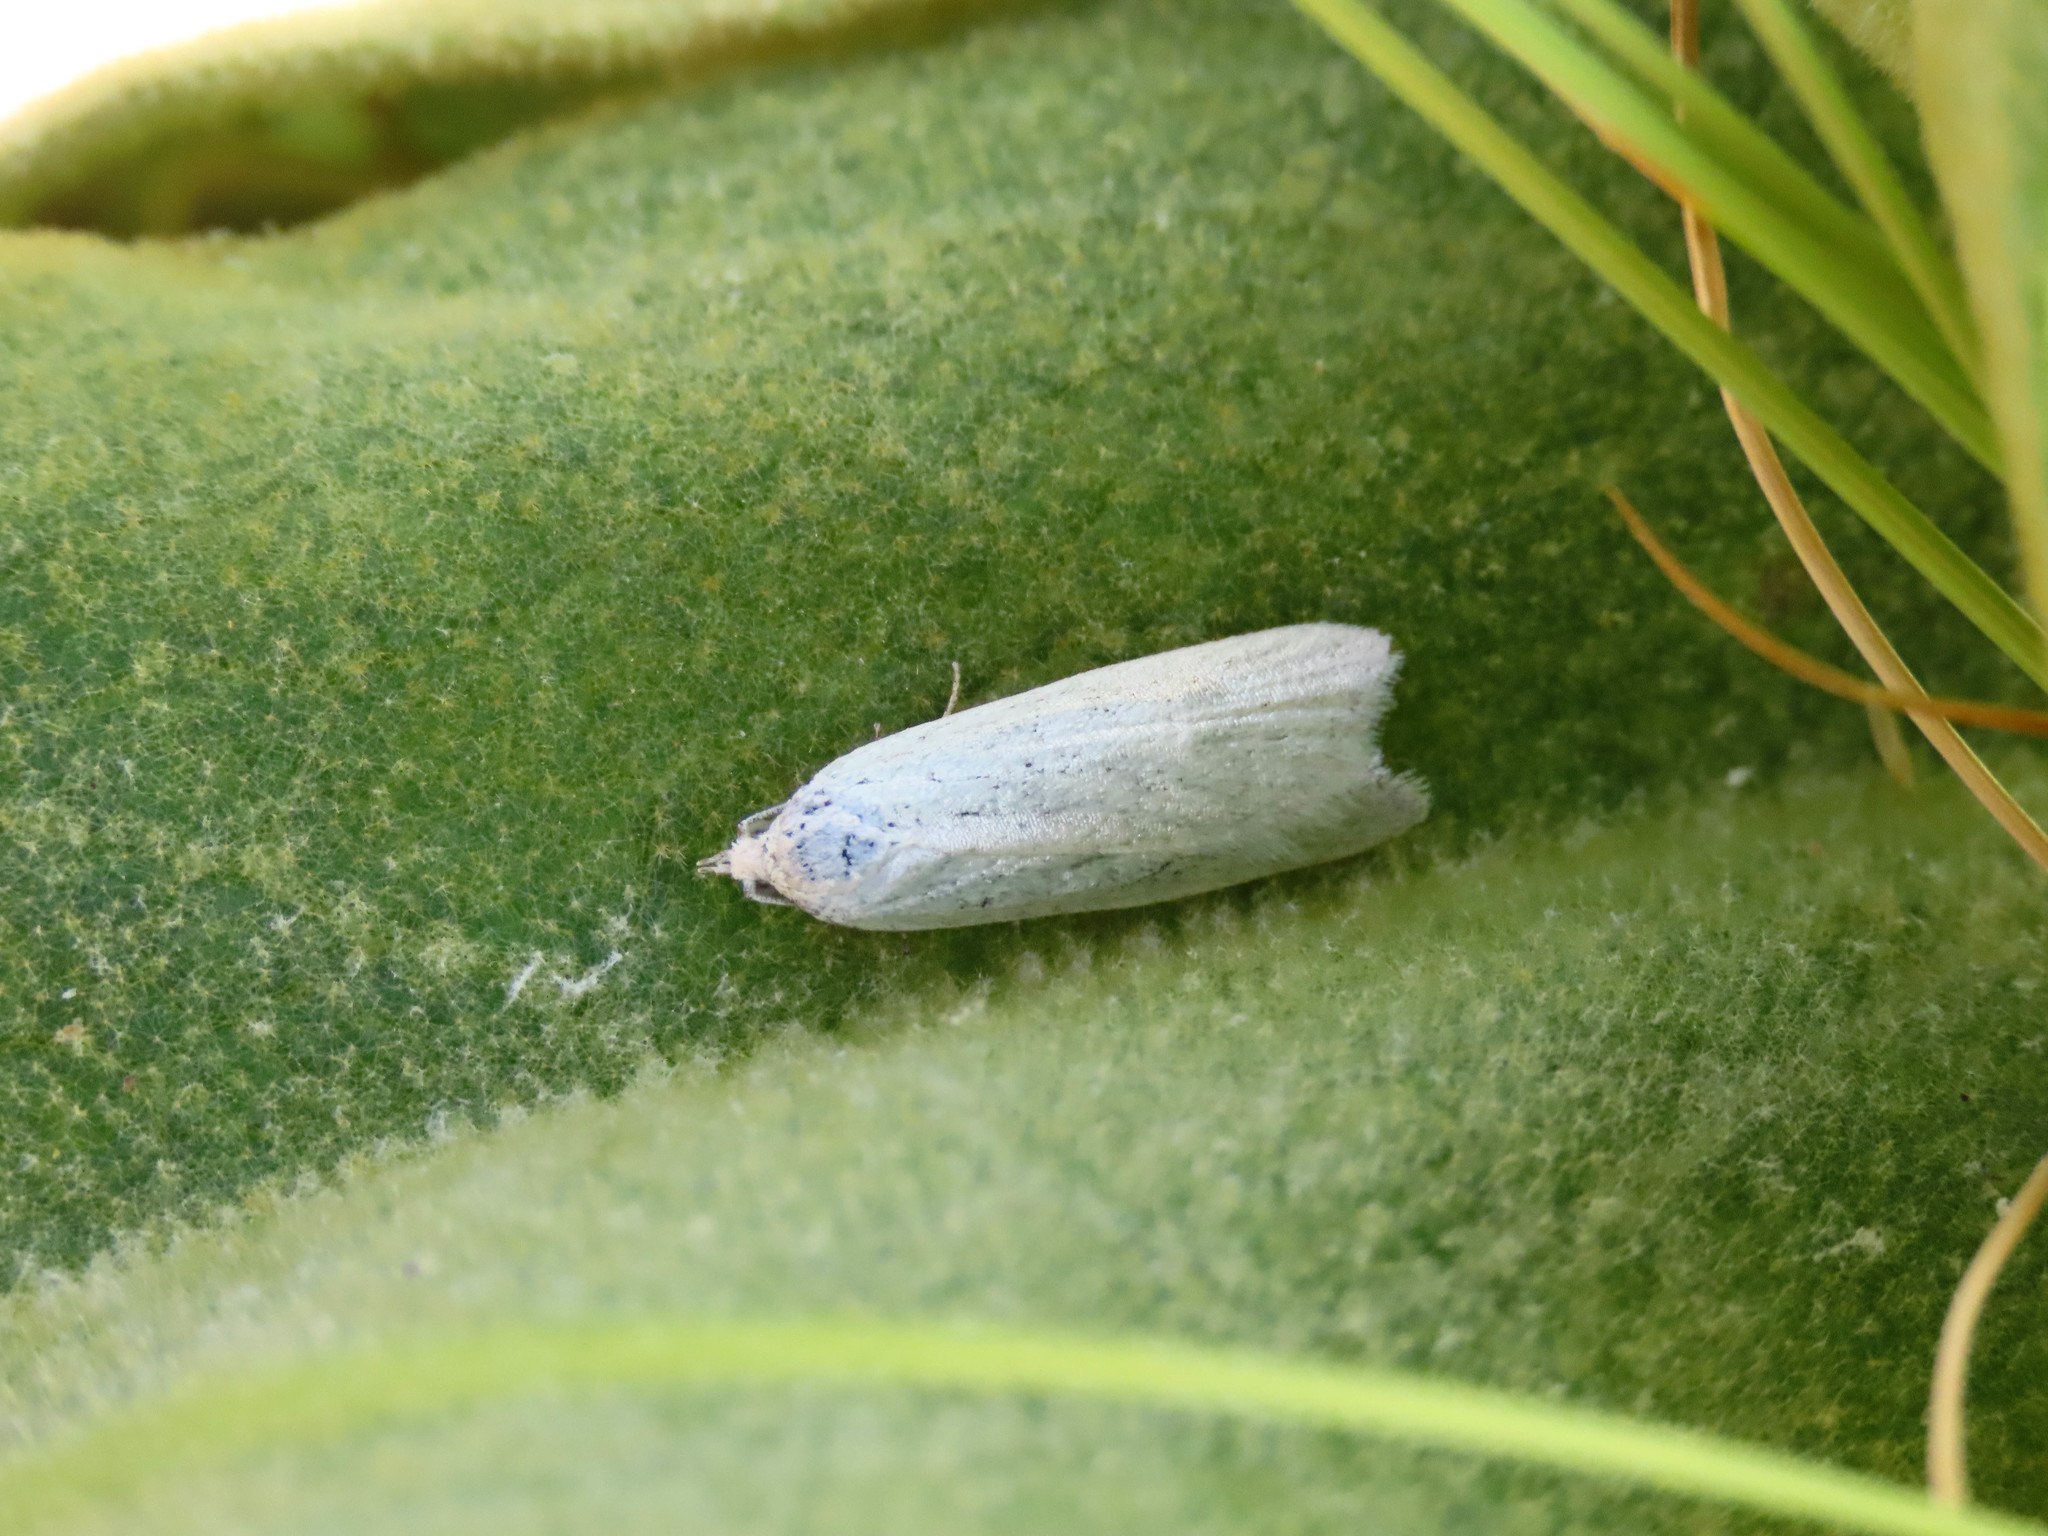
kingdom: Animalia
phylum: Arthropoda
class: Insecta
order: Lepidoptera
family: Tortricidae
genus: Eana
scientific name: Eana argentana
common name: Silver shade
